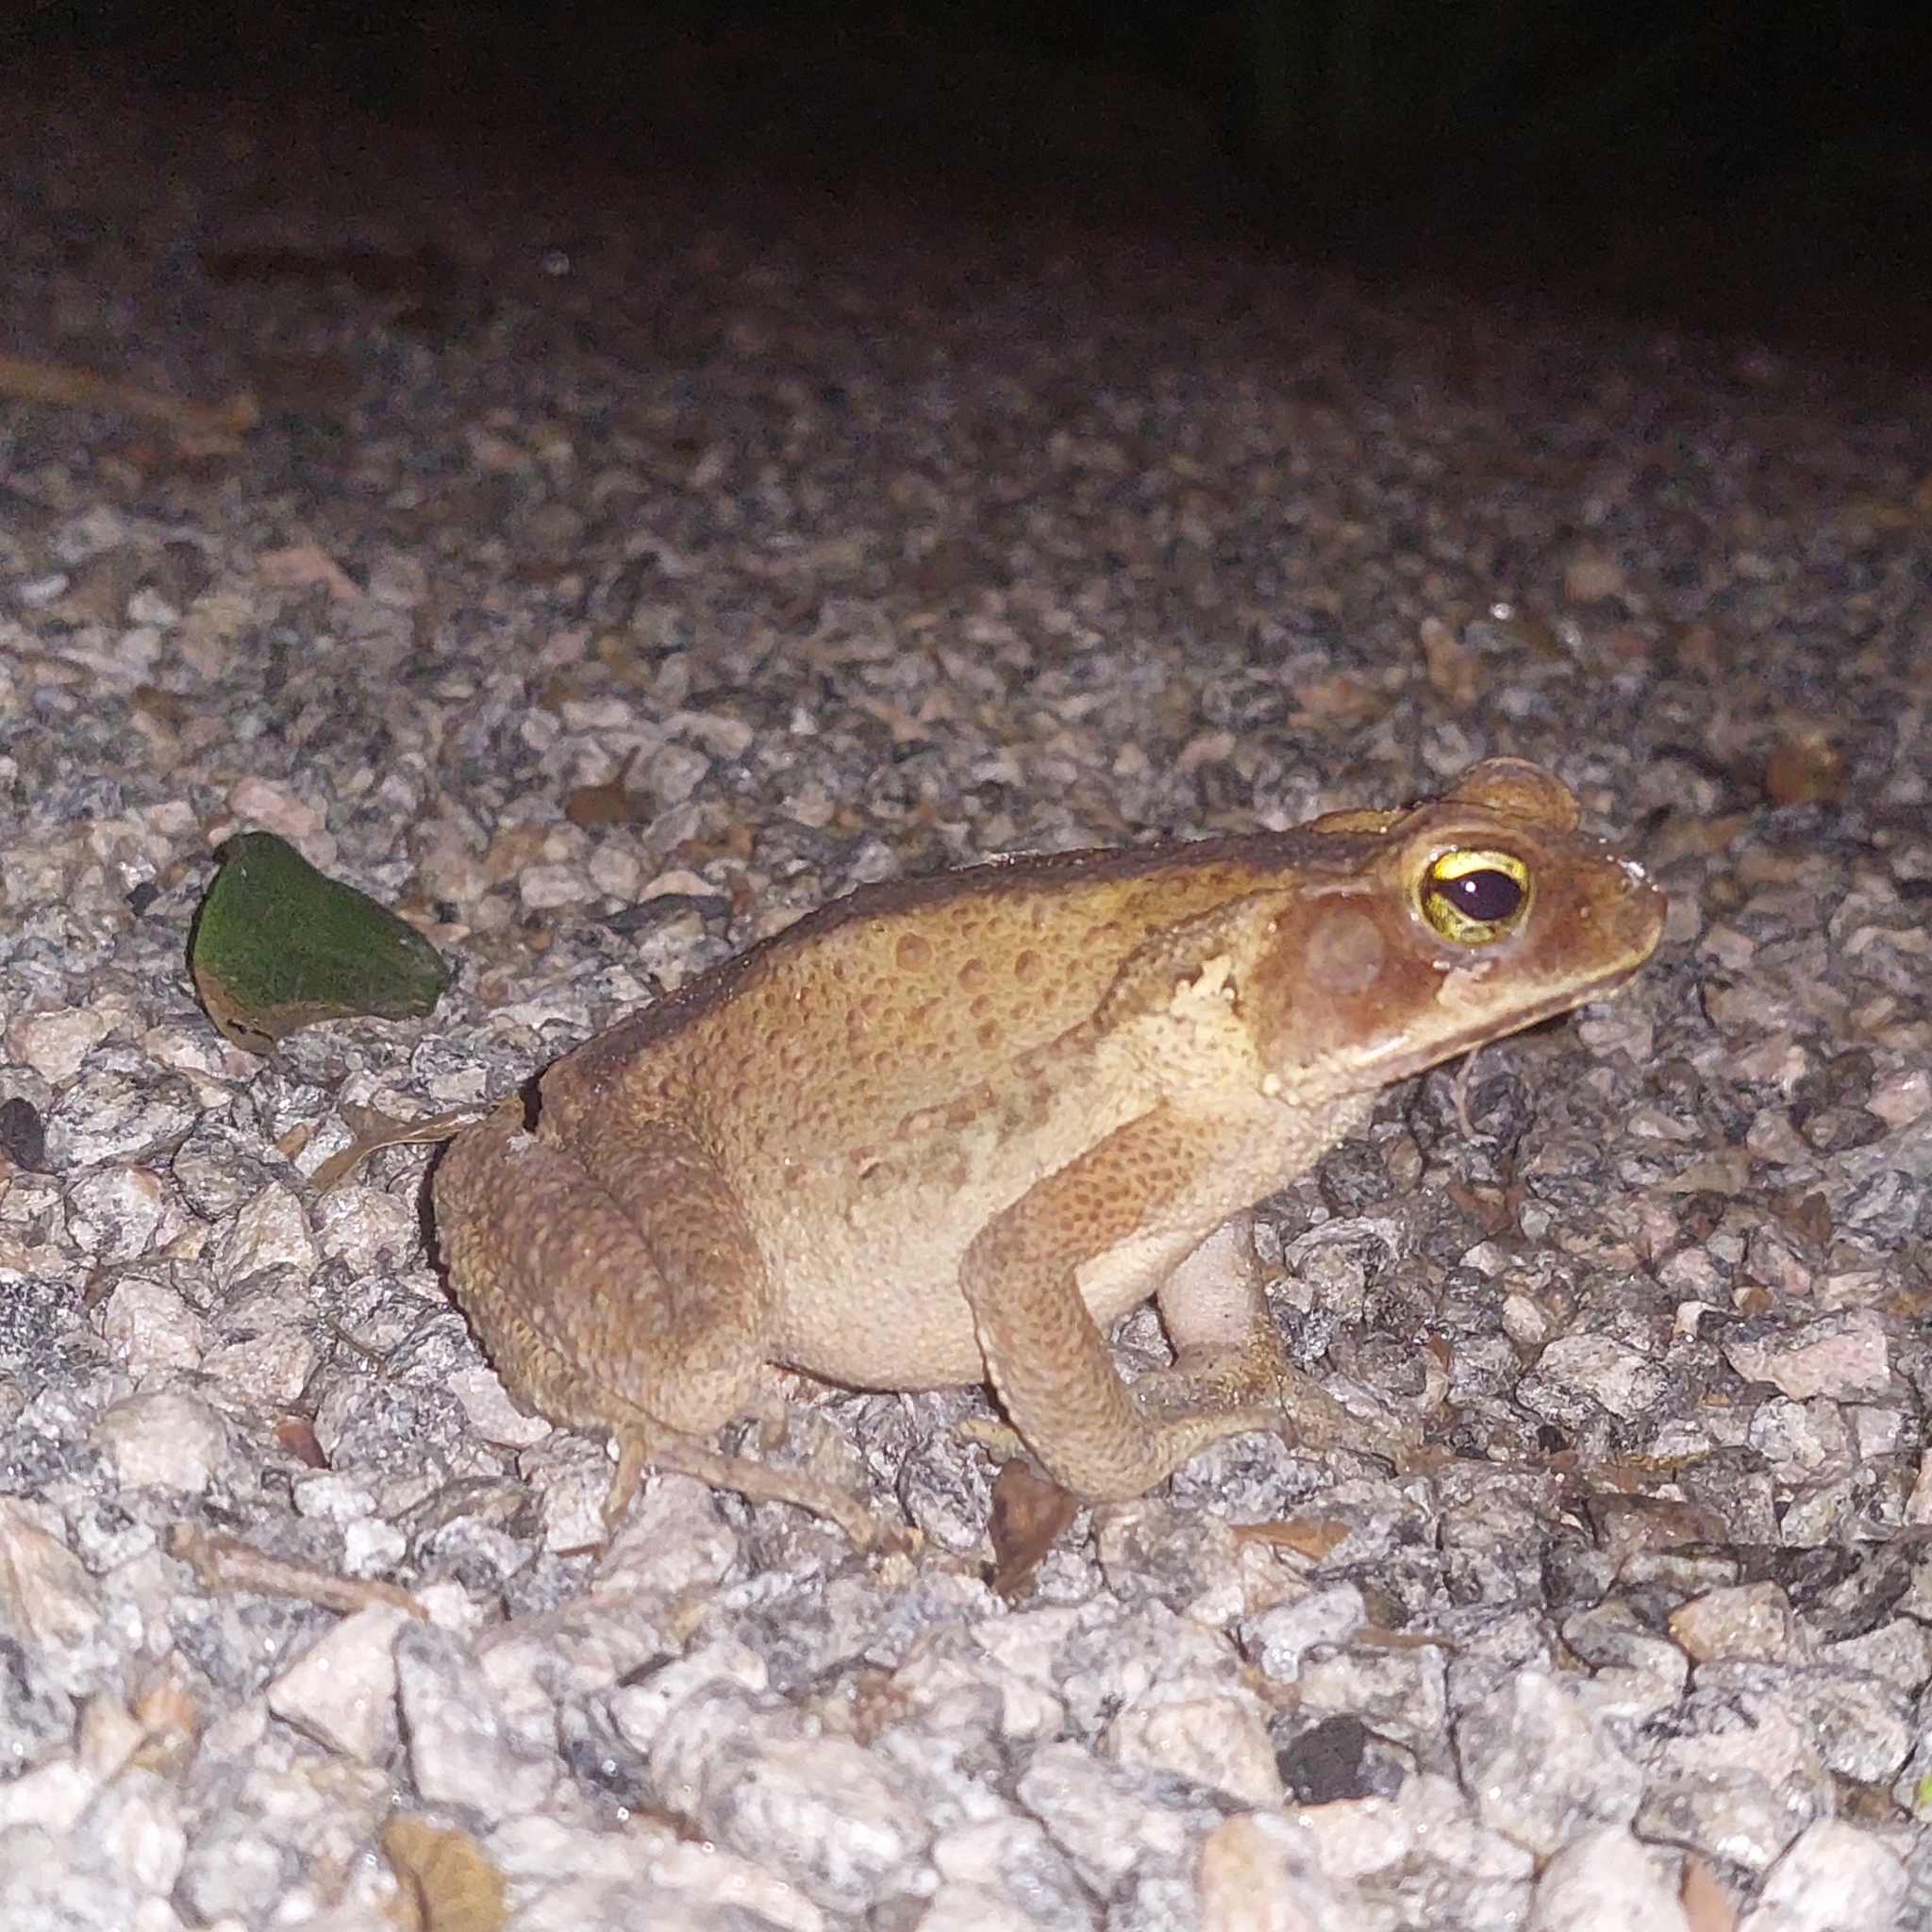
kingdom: Animalia
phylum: Chordata
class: Amphibia
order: Anura
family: Bufonidae
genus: Rhinella
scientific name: Rhinella ornata
